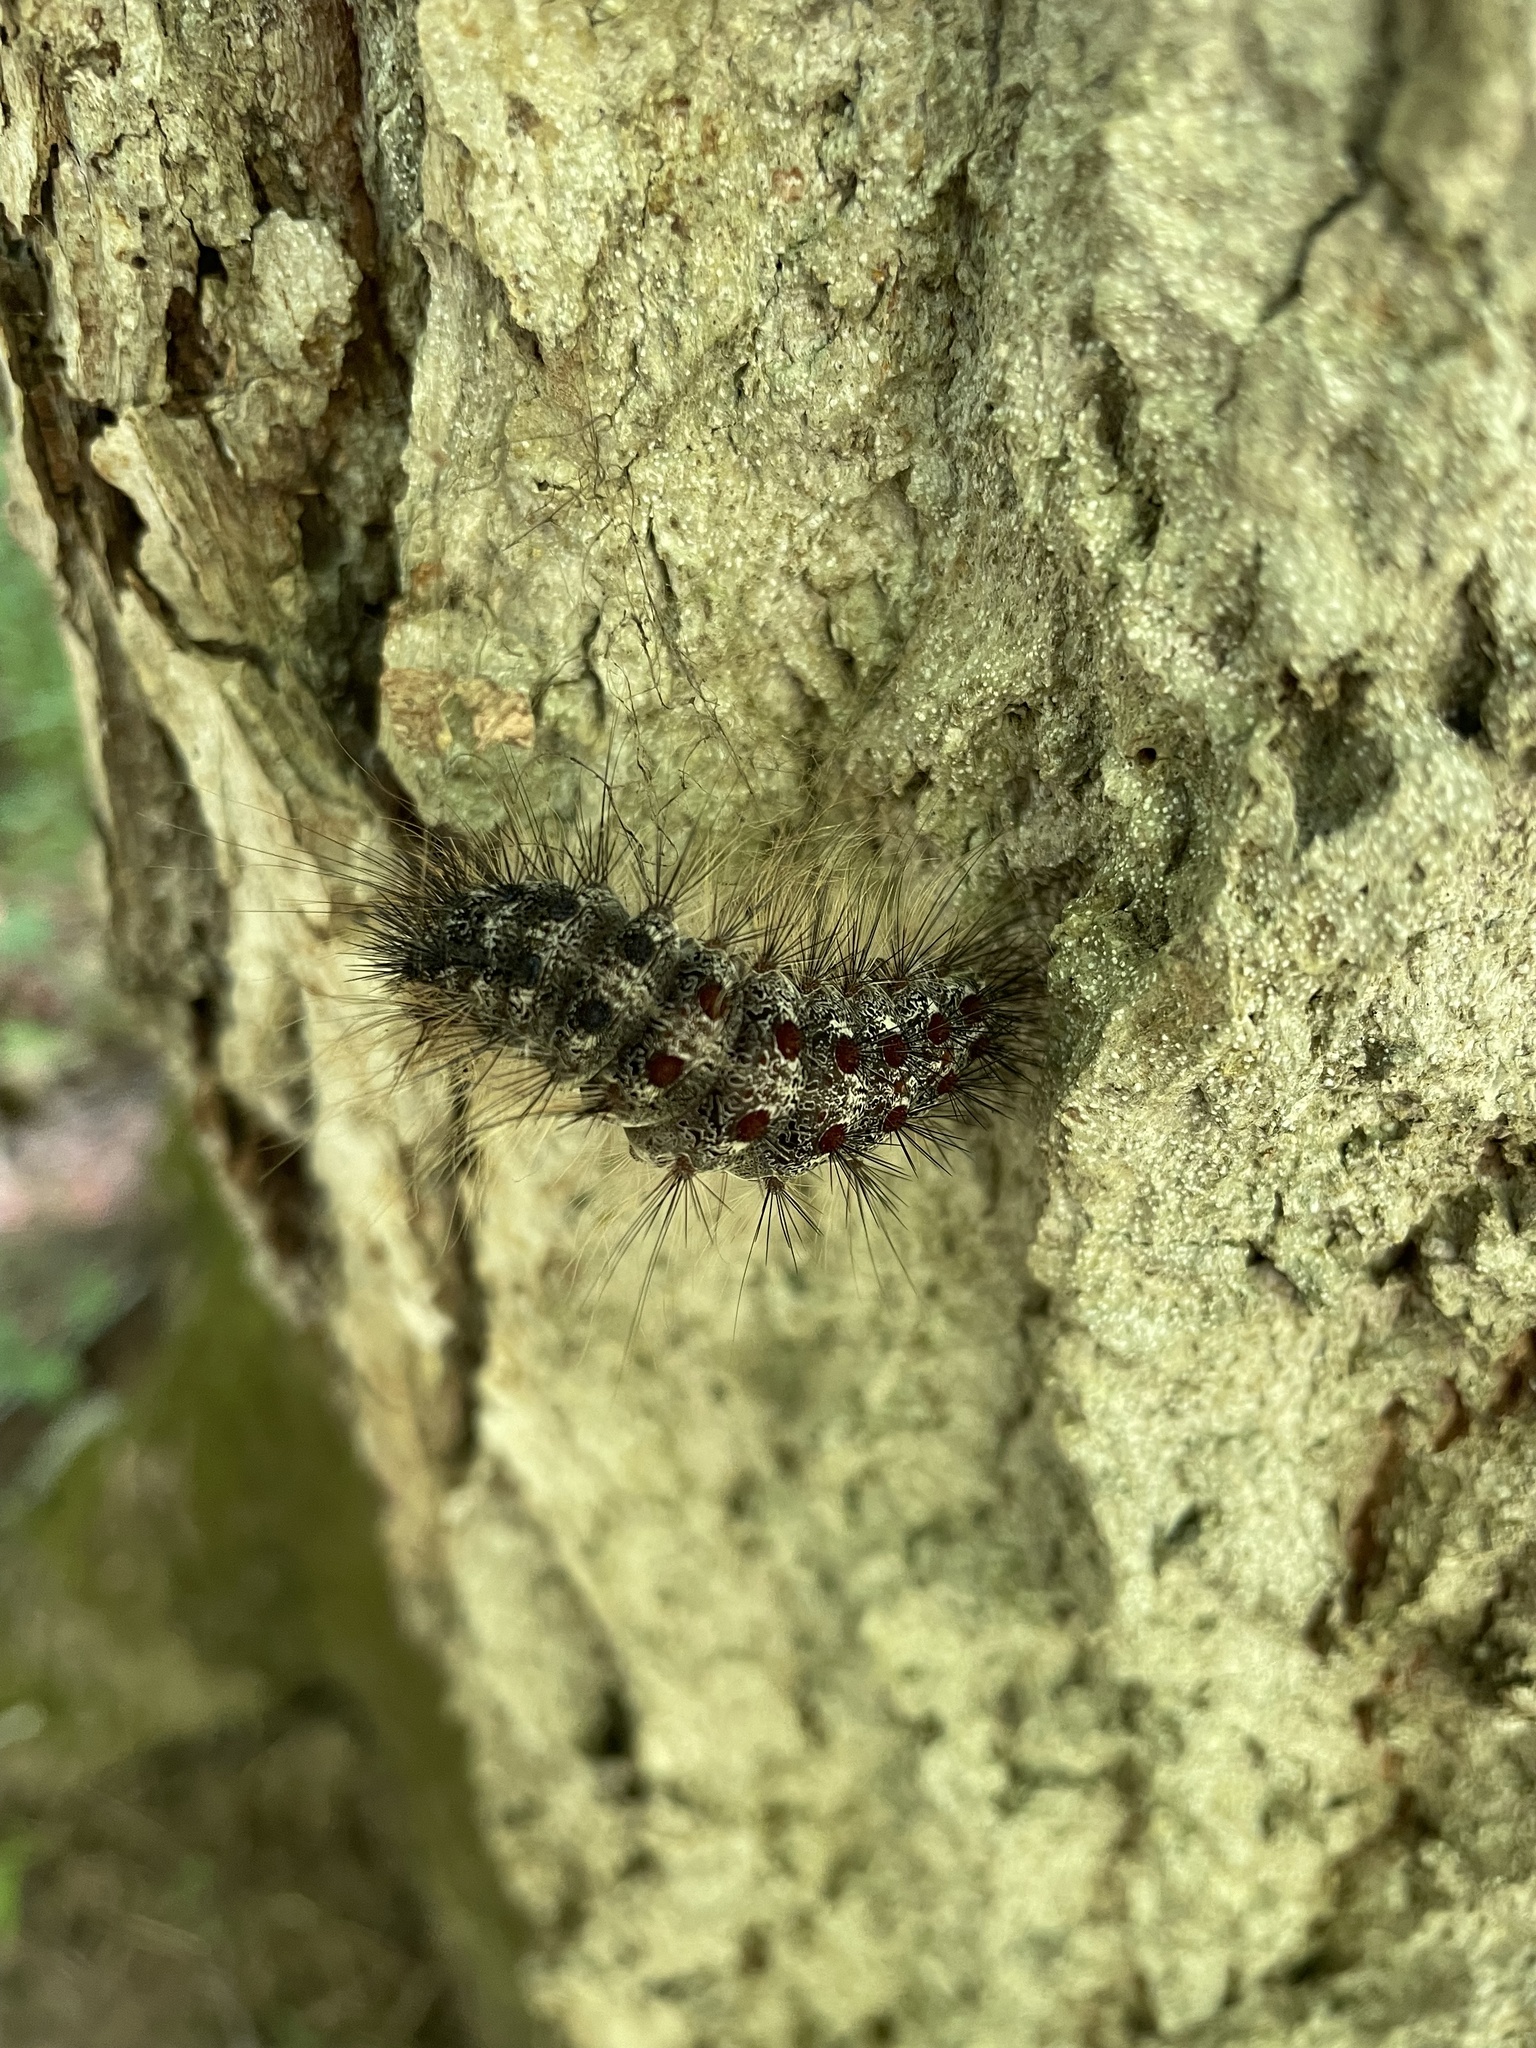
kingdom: Animalia
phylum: Arthropoda
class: Insecta
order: Lepidoptera
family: Erebidae
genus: Lymantria
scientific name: Lymantria dispar
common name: Gypsy moth
